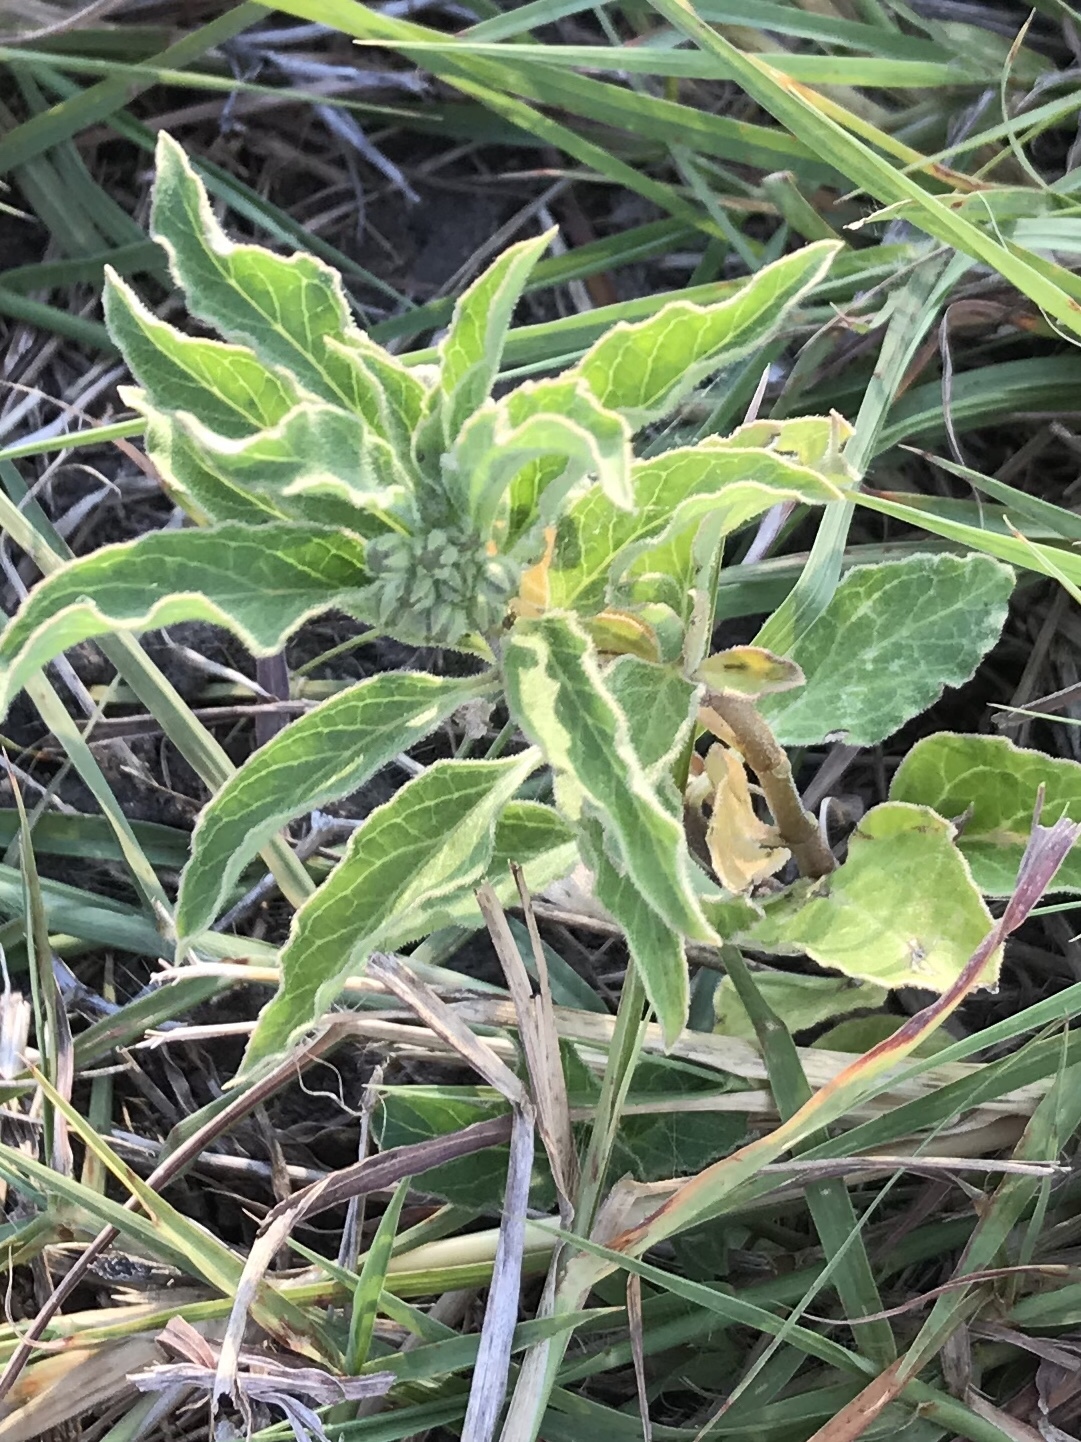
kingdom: Plantae
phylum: Tracheophyta
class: Magnoliopsida
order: Gentianales
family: Apocynaceae
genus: Asclepias
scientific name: Asclepias oenotheroides
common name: Zizotes milkweed
